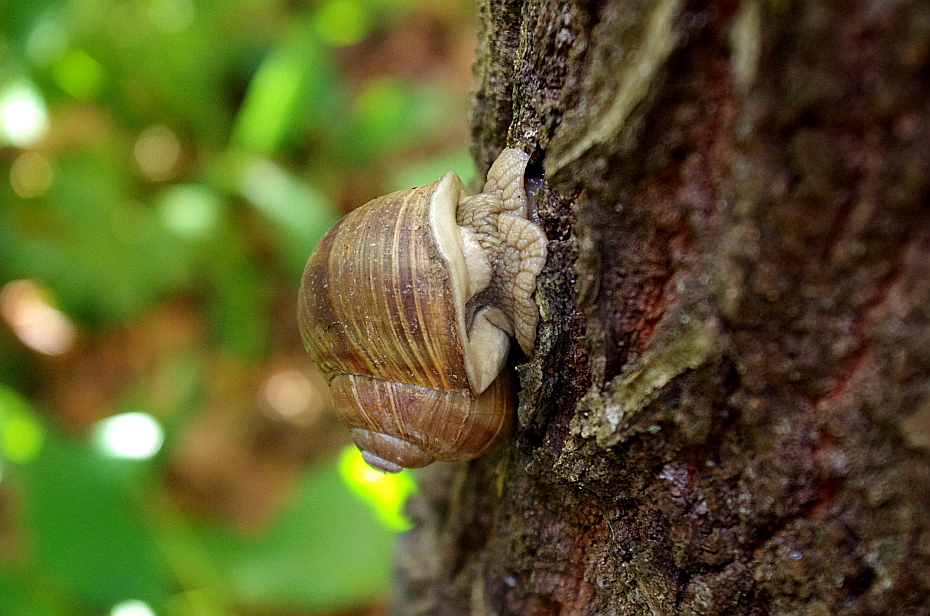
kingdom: Animalia
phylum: Mollusca
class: Gastropoda
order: Stylommatophora
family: Helicidae
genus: Helix
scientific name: Helix pomatia
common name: Roman snail
